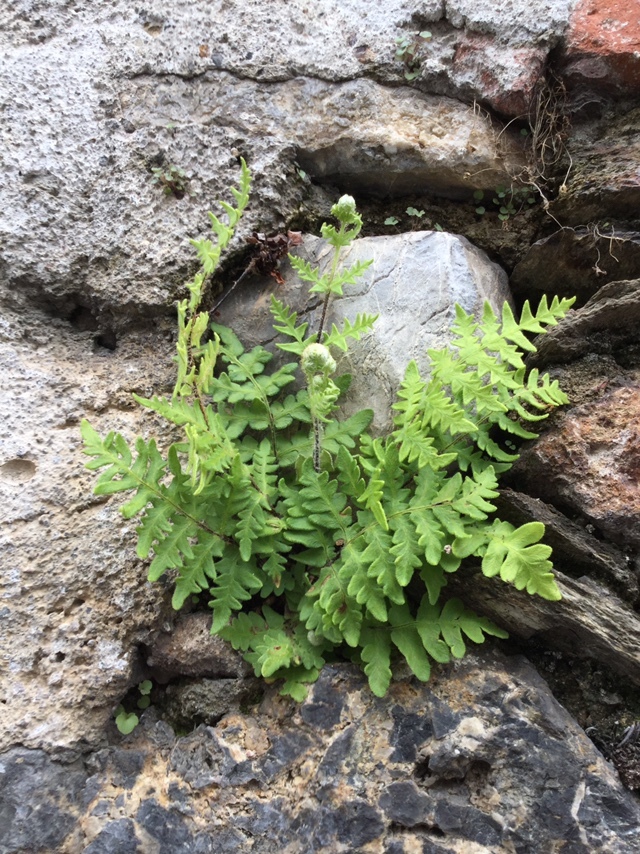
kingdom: Plantae
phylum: Tracheophyta
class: Polypodiopsida
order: Polypodiales
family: Pteridaceae
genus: Cheilanthes
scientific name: Cheilanthes lozanoi
